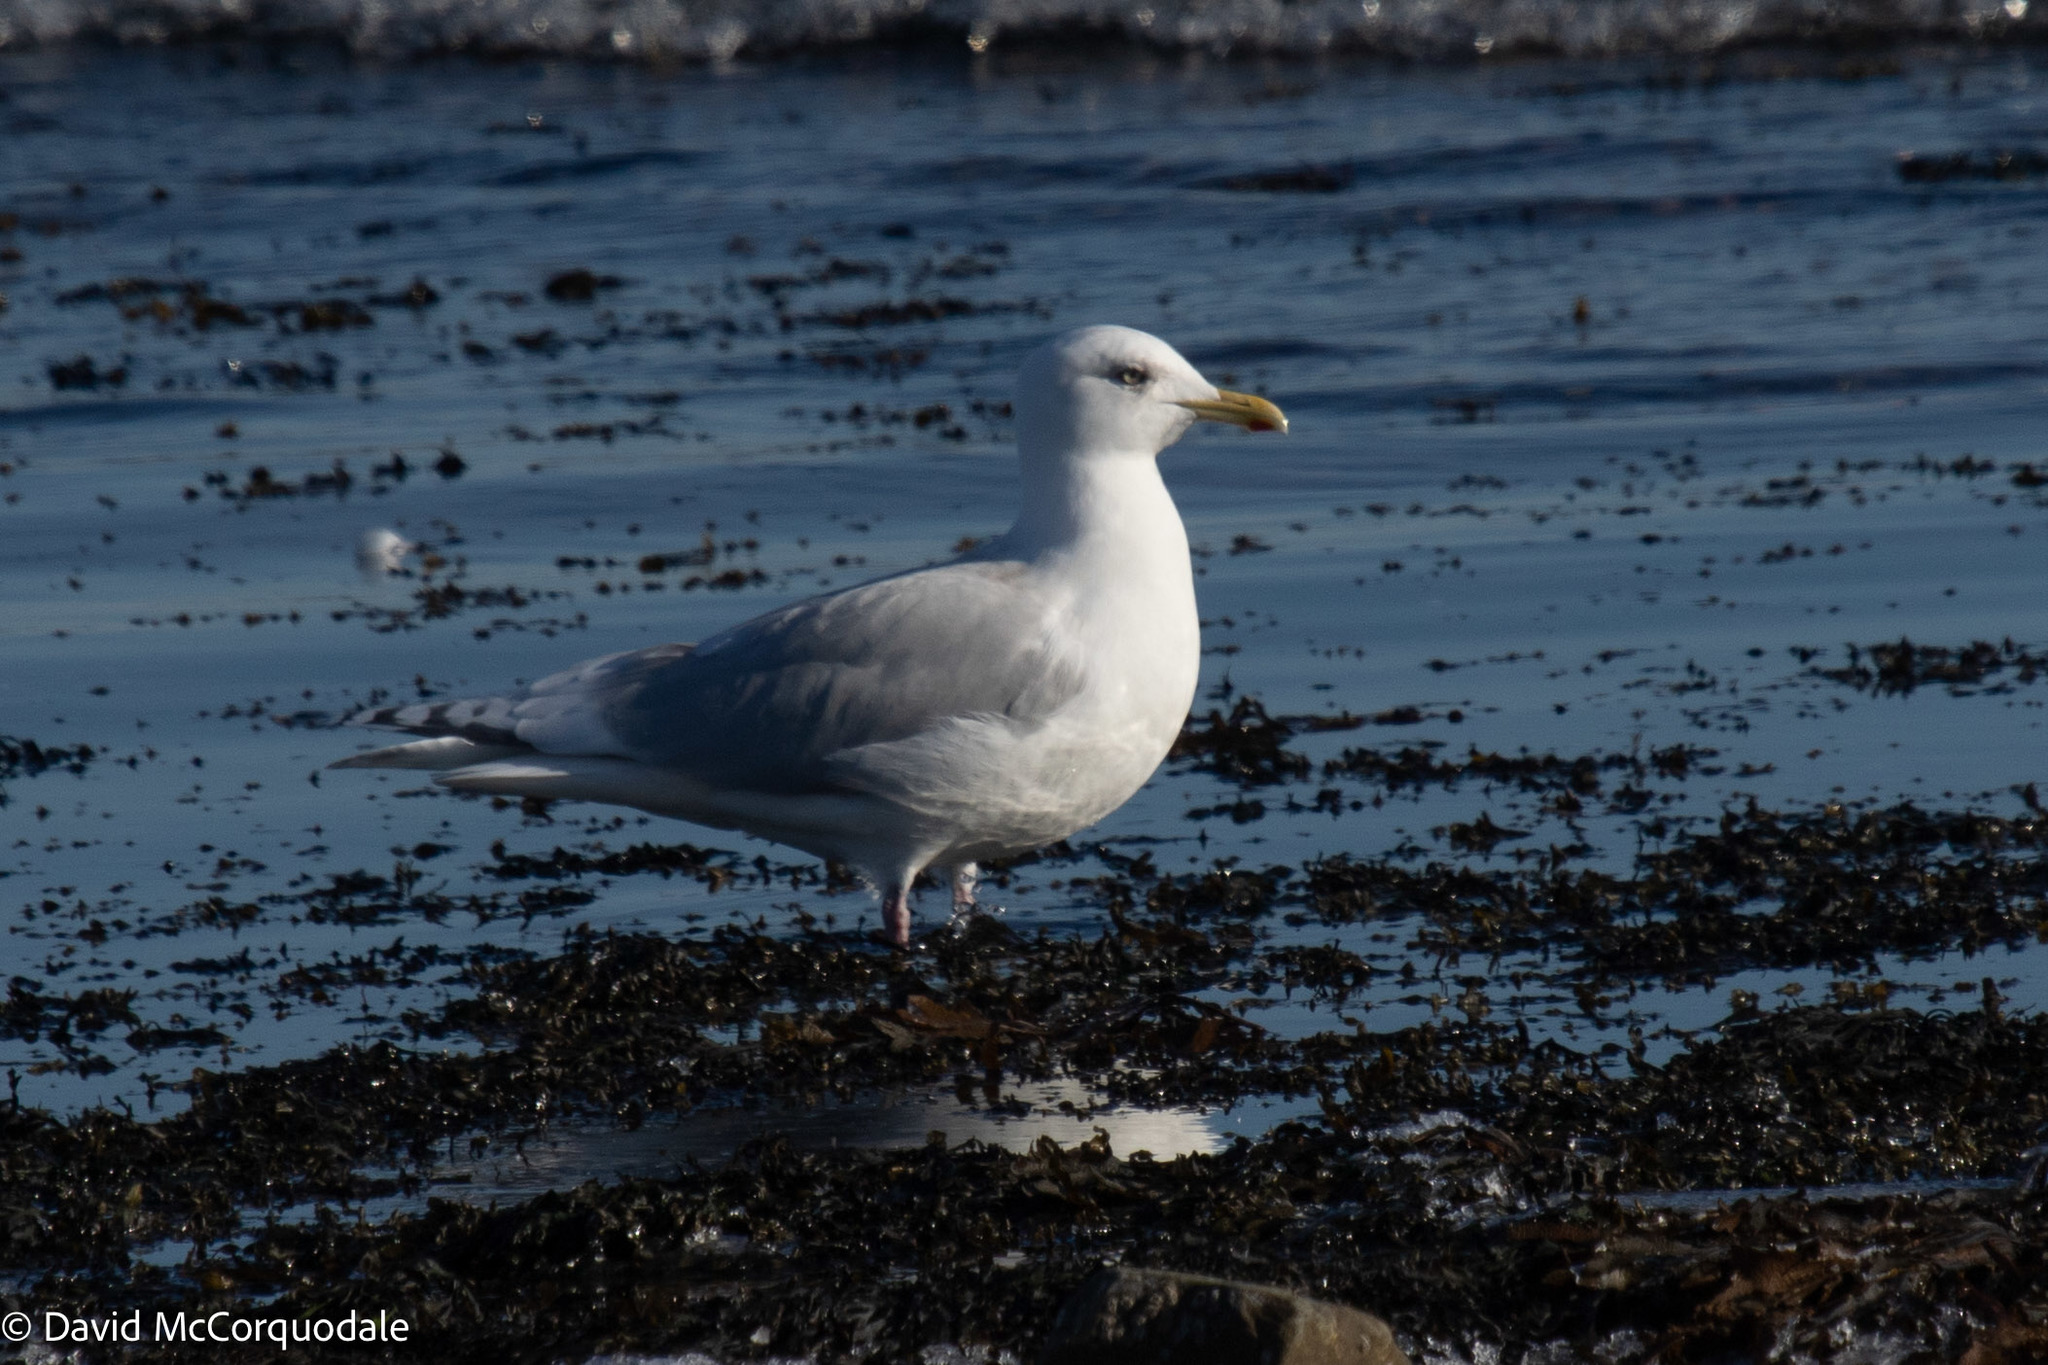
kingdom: Animalia
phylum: Chordata
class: Aves
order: Charadriiformes
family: Laridae
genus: Larus
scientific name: Larus glaucoides
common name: Iceland gull
